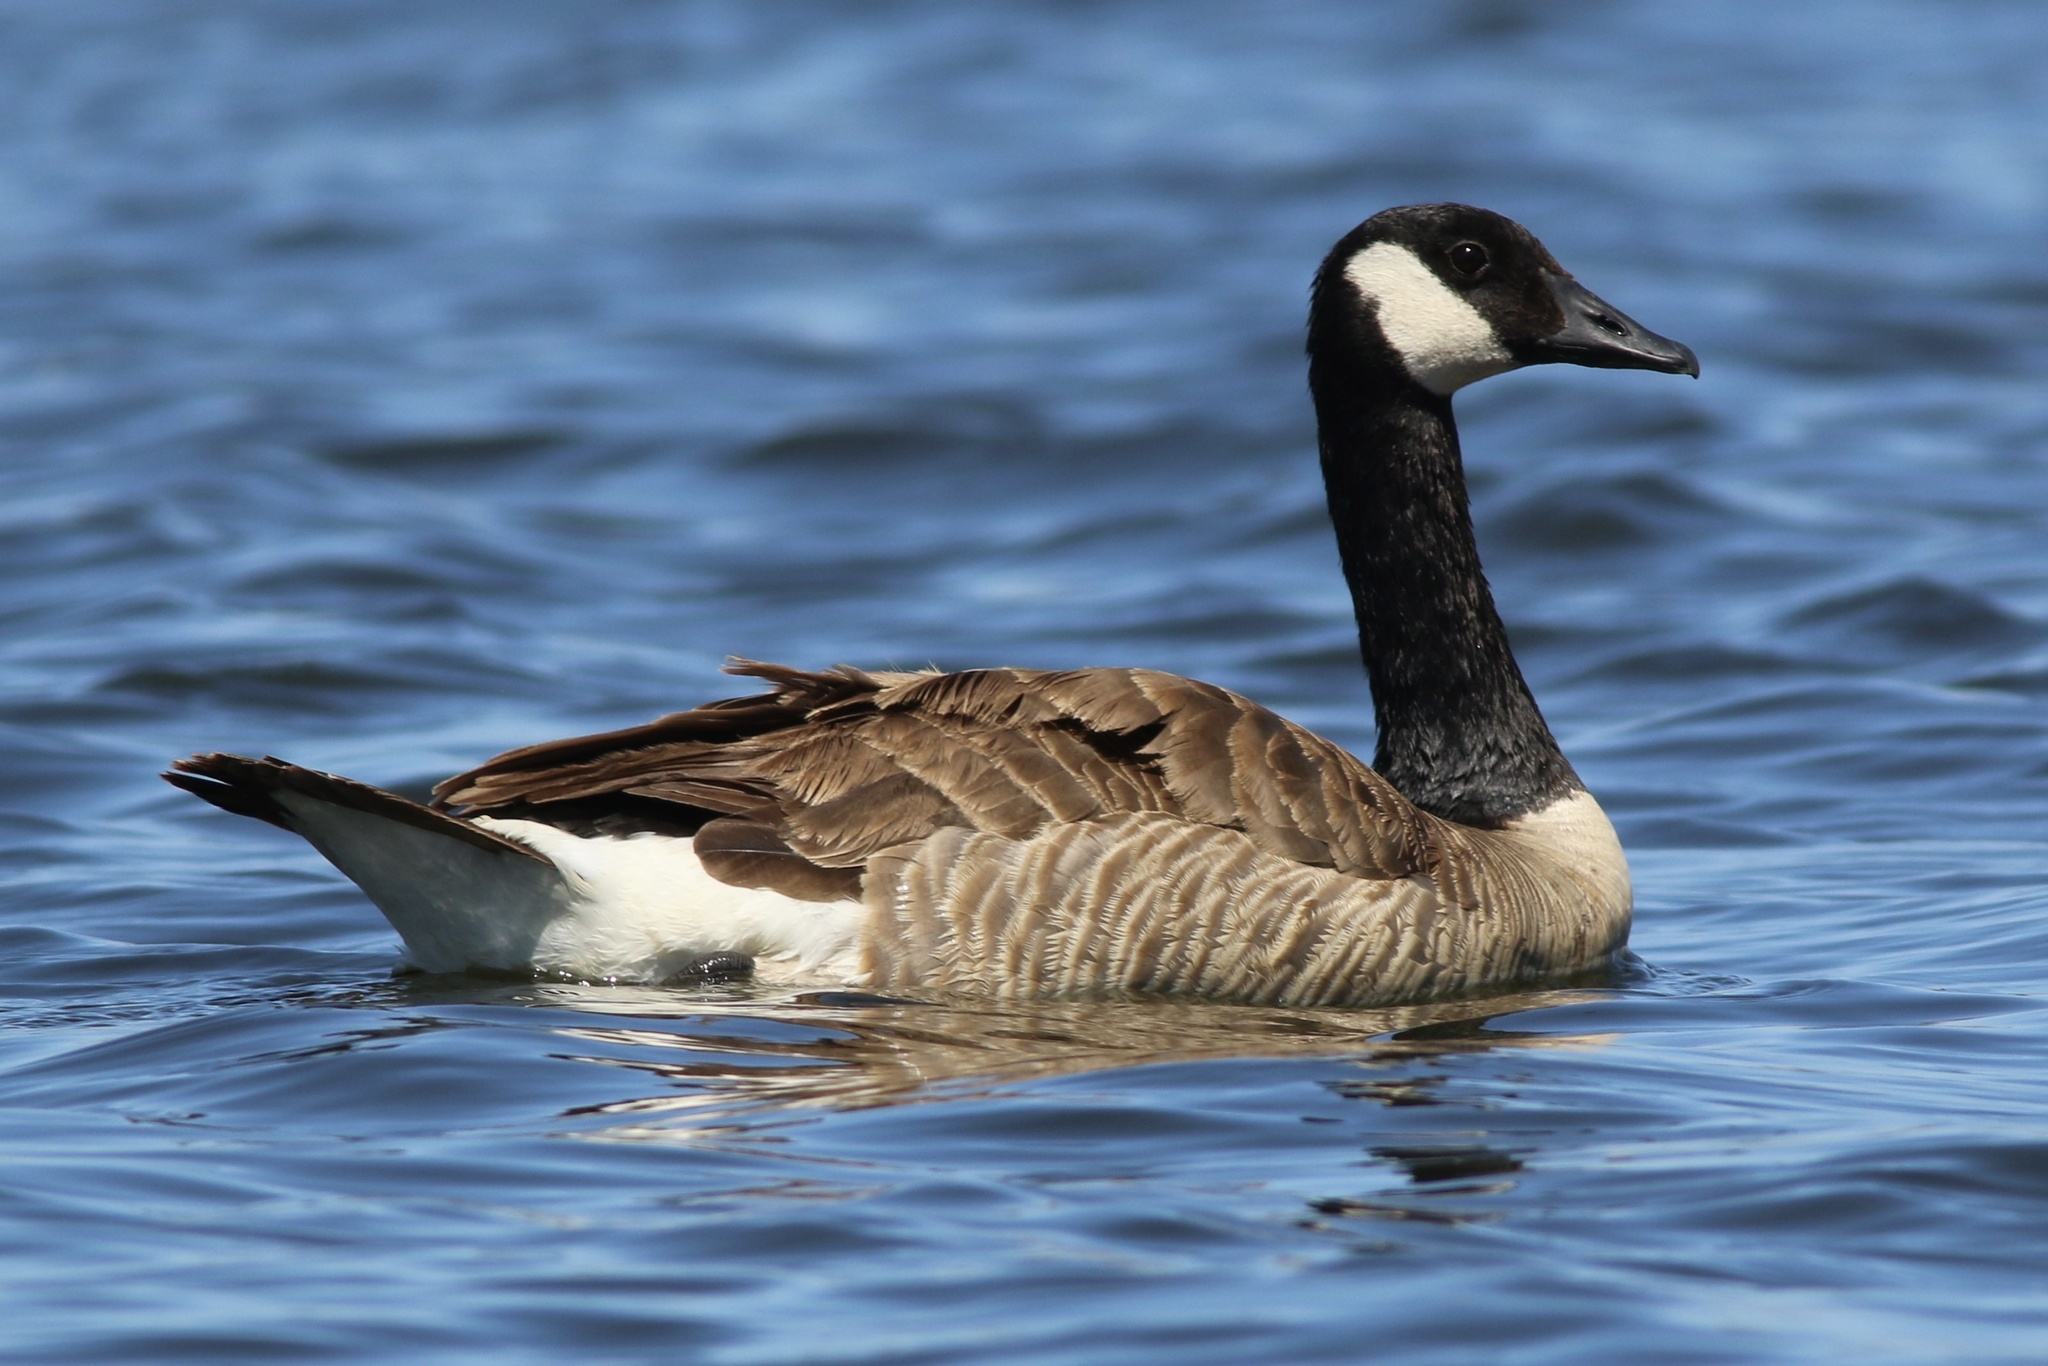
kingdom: Animalia
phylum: Chordata
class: Aves
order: Anseriformes
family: Anatidae
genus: Branta
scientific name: Branta canadensis
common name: Canada goose
